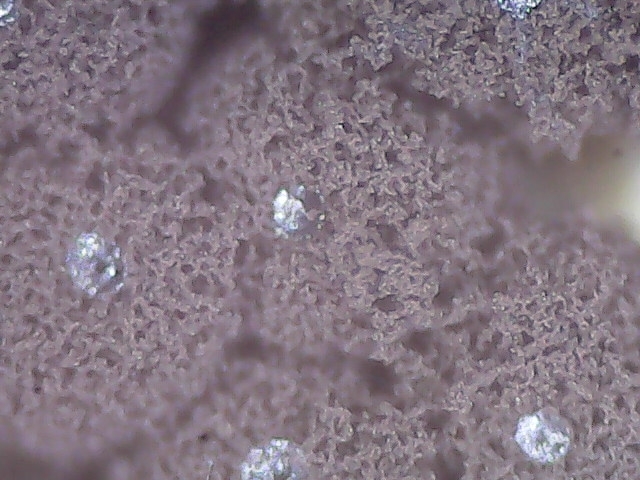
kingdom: Protozoa
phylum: Mycetozoa
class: Myxomycetes
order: Stemonitidales
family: Stemonitidaceae
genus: Enerthenema
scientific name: Enerthenema papillatum
